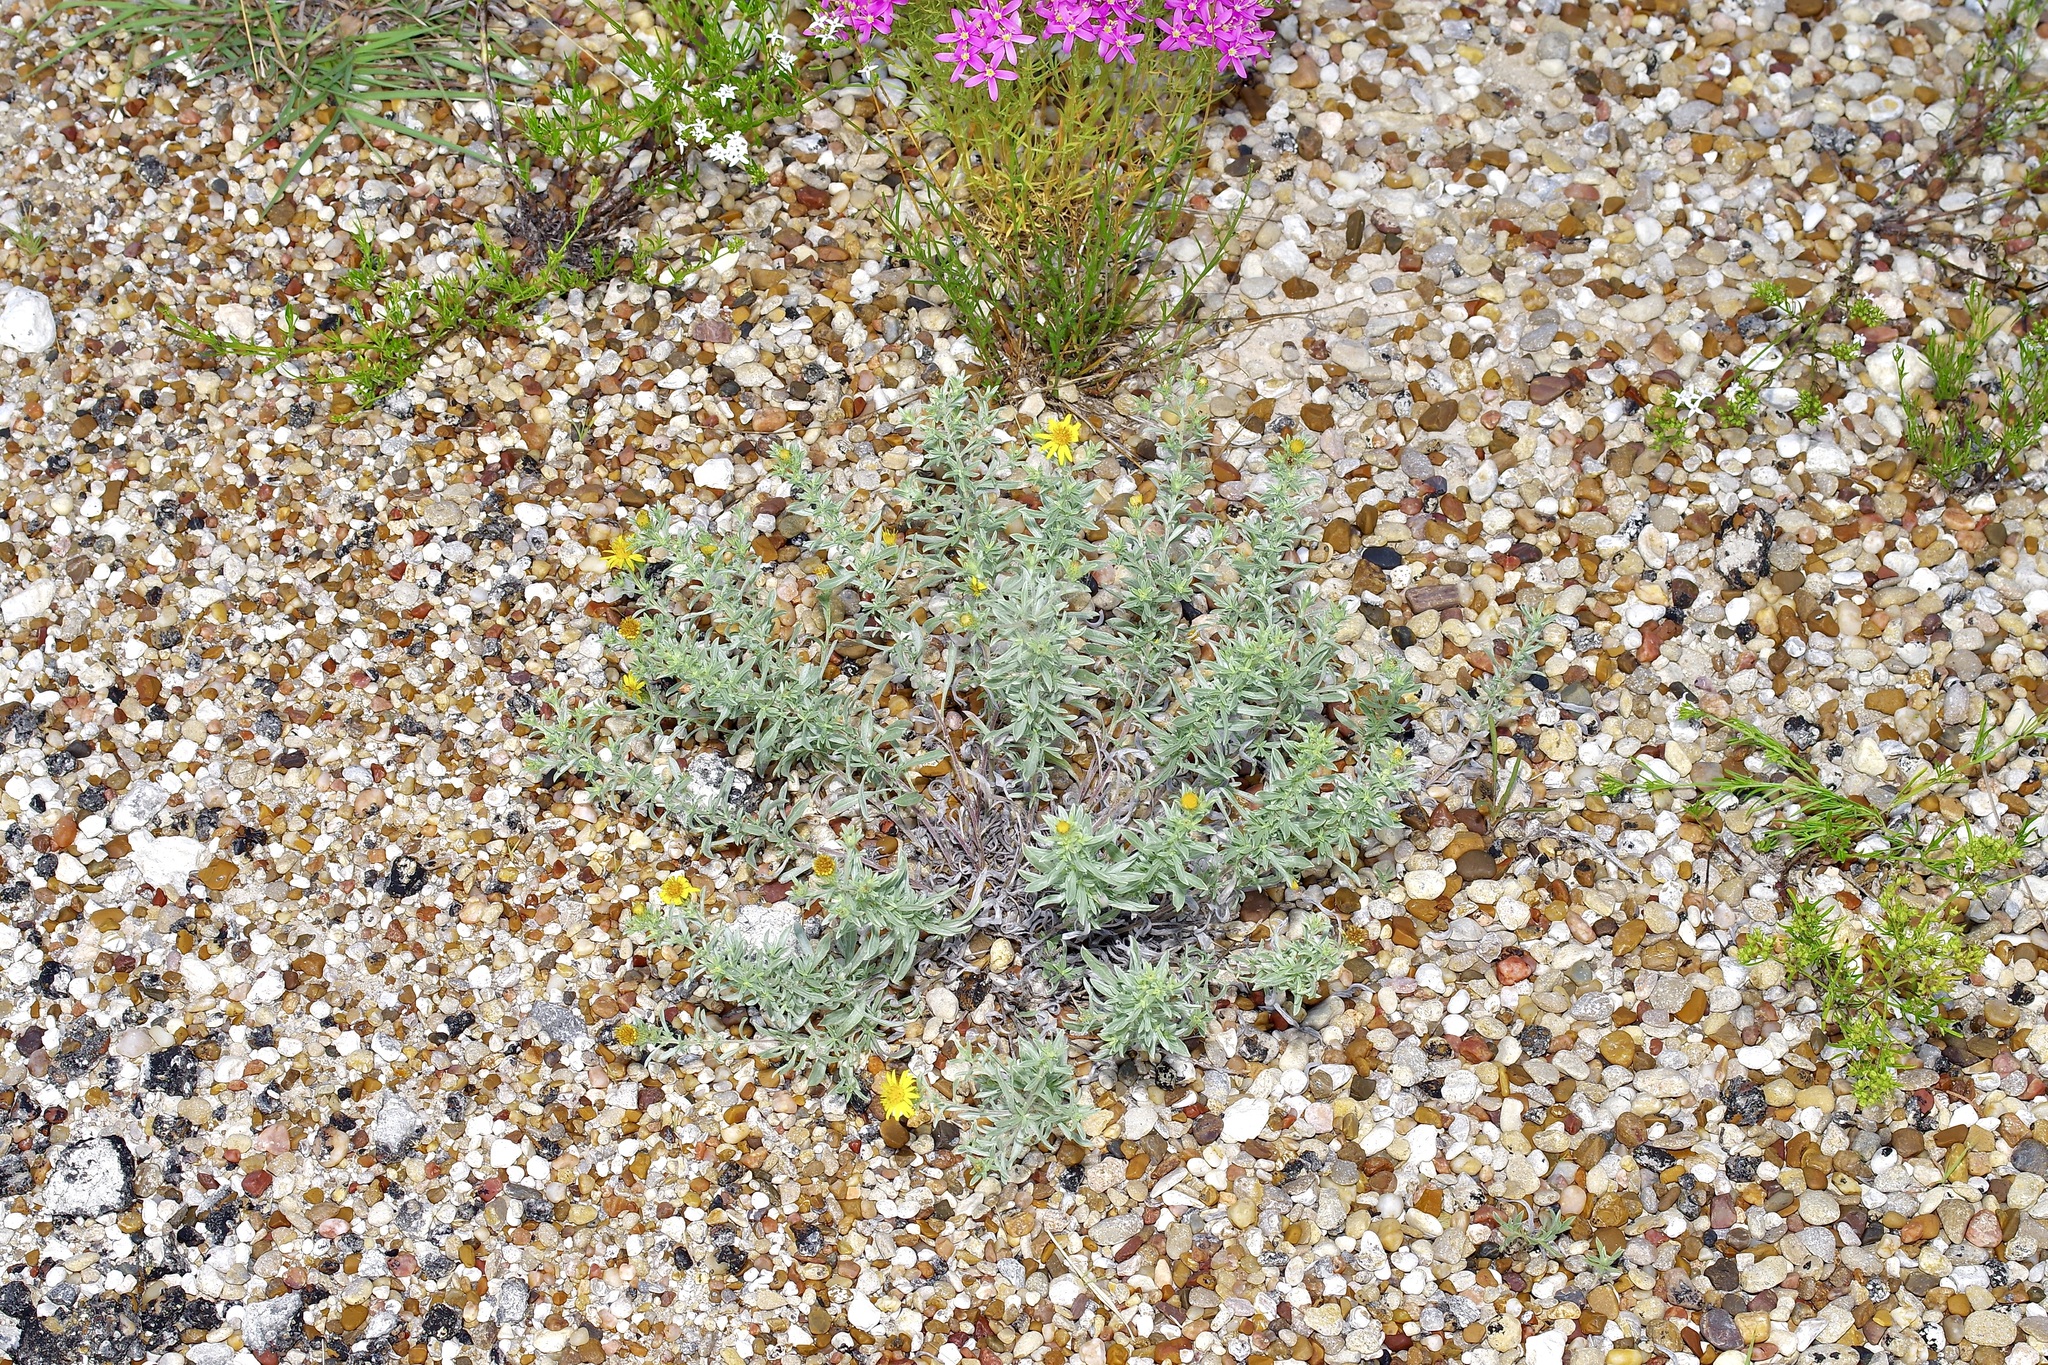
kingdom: Plantae
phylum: Tracheophyta
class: Magnoliopsida
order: Asterales
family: Asteraceae
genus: Heterotheca
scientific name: Heterotheca canescens
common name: Hoary golden-aster
